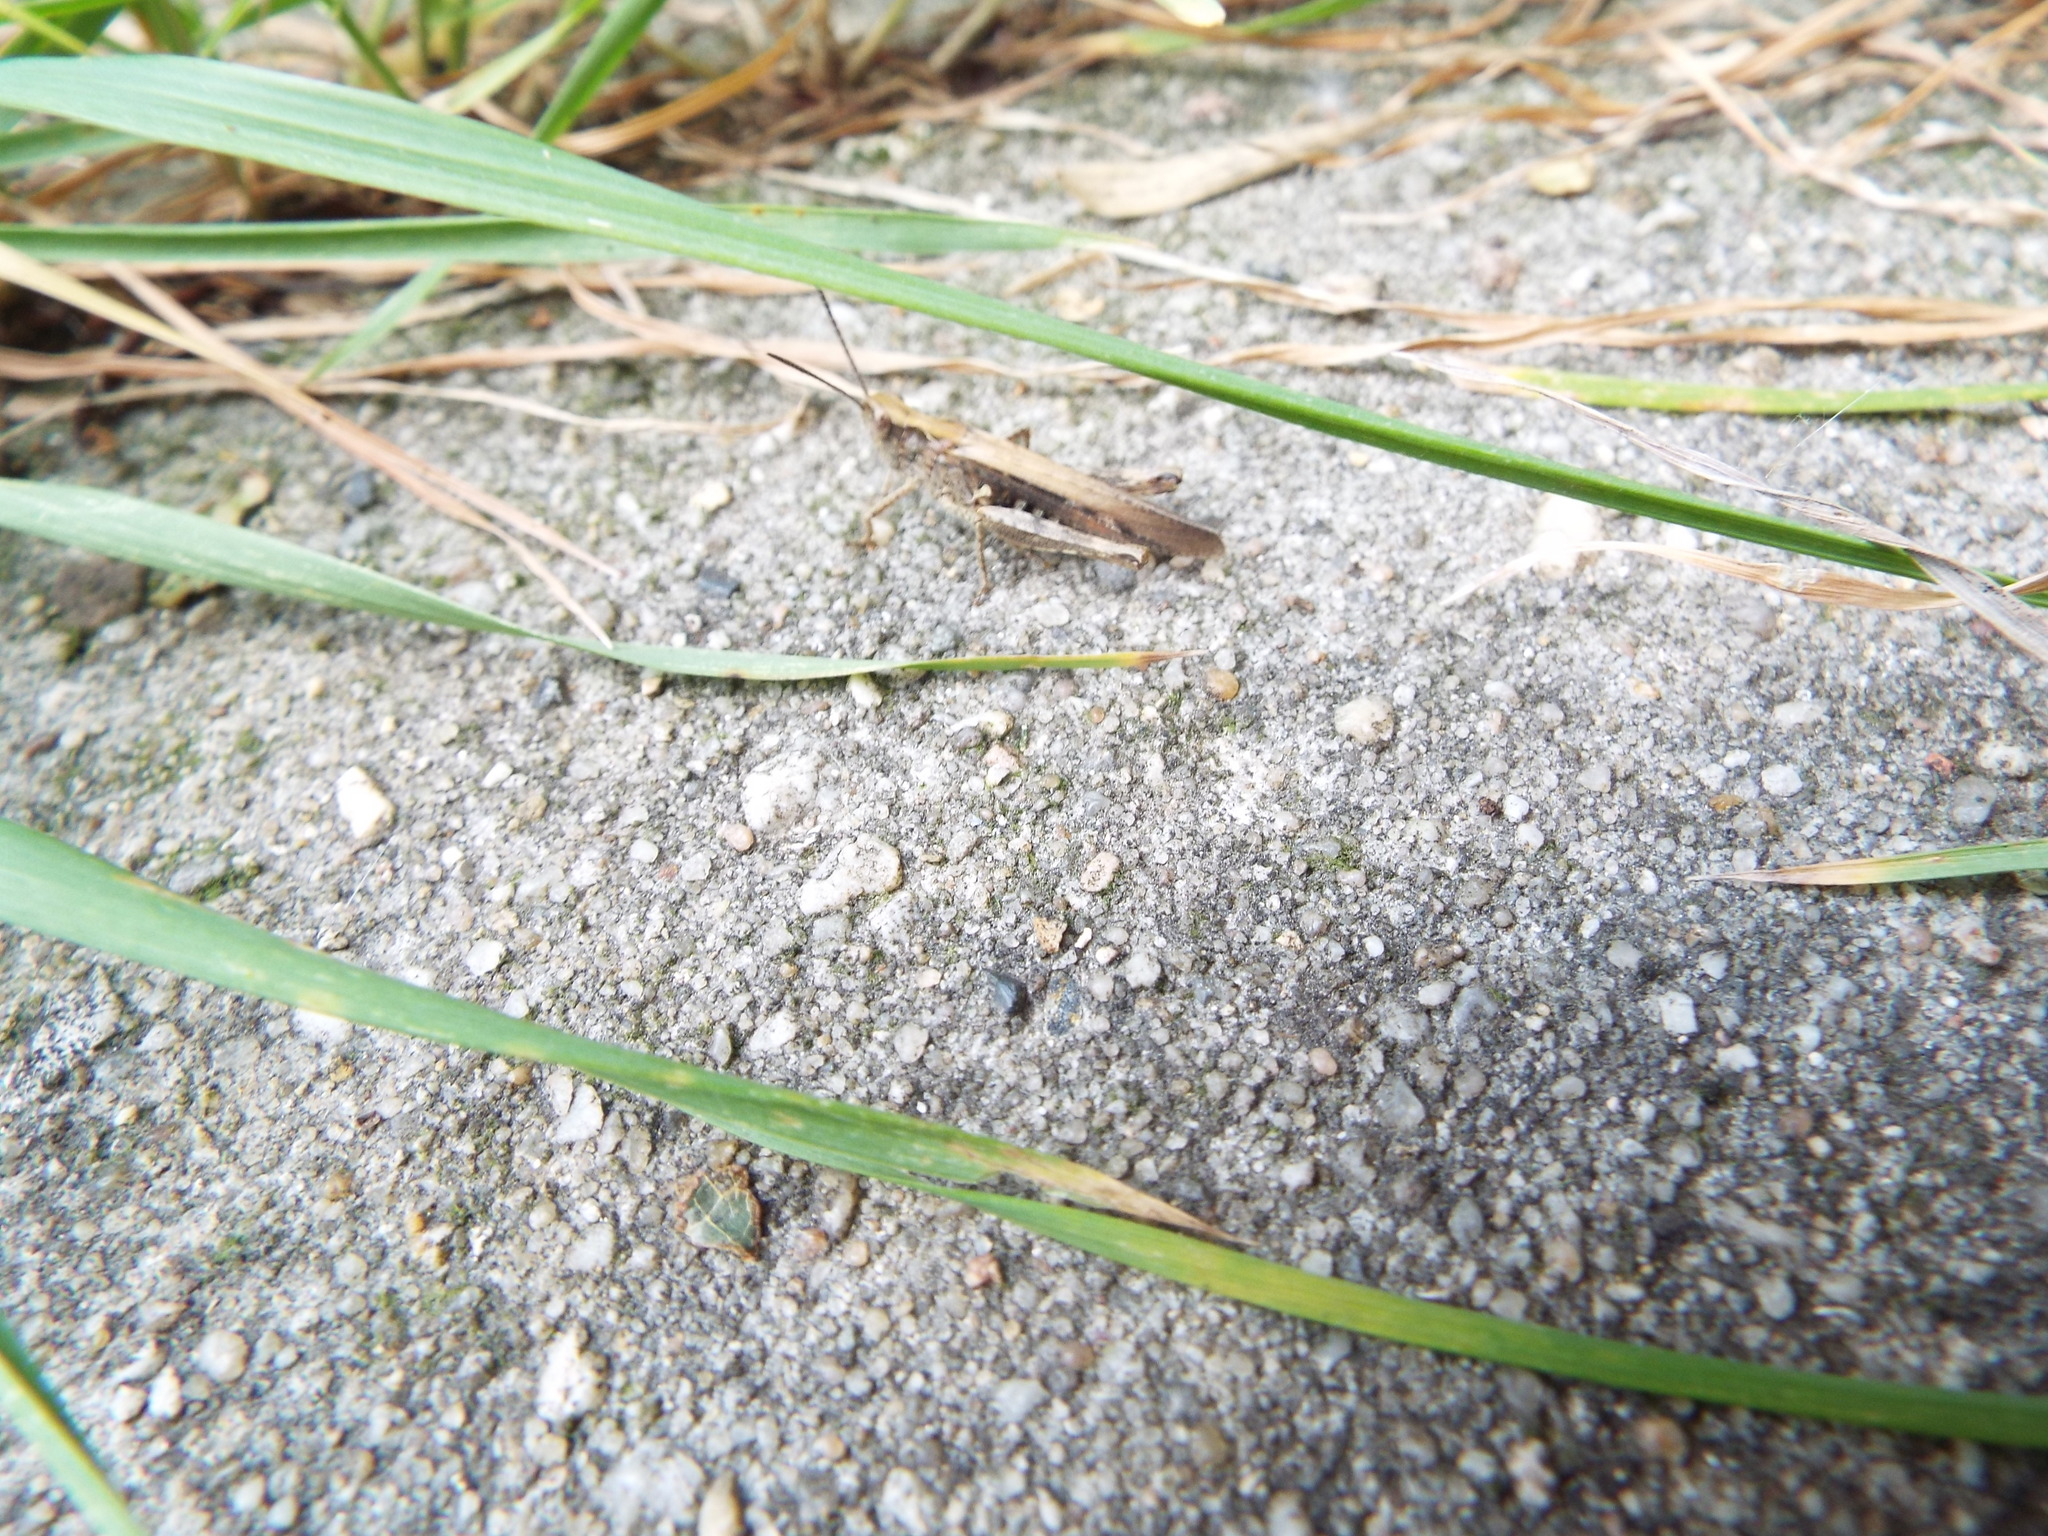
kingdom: Animalia
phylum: Arthropoda
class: Insecta
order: Orthoptera
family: Acrididae
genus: Chorthippus
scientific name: Chorthippus brunneus
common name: Field grasshopper
